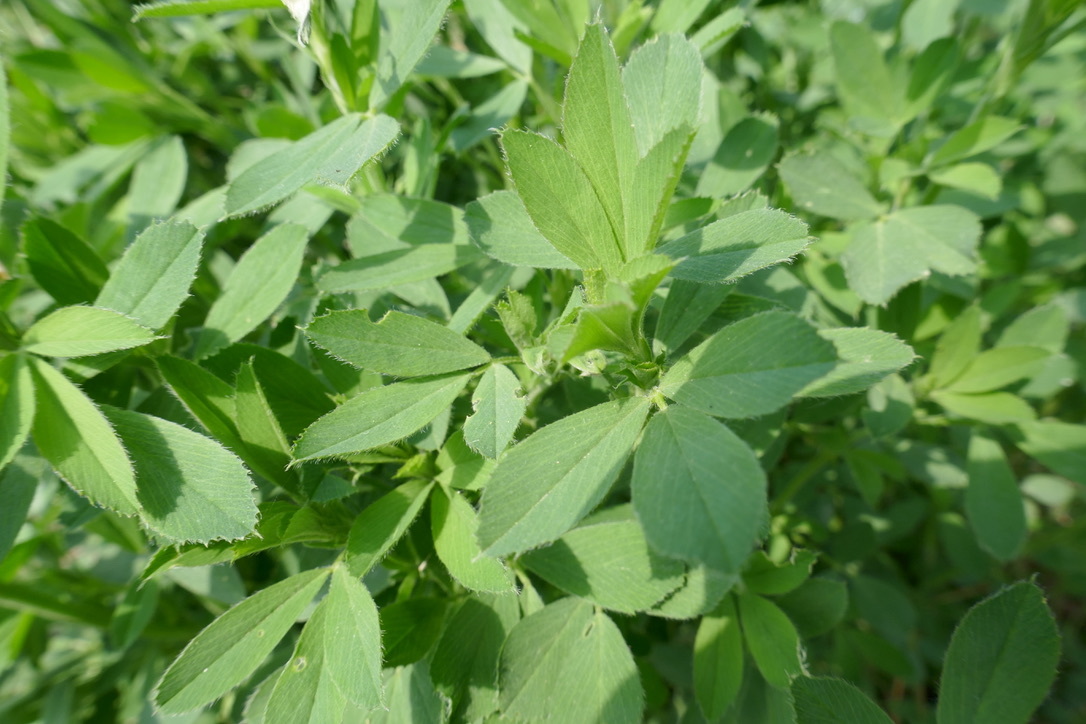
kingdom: Plantae
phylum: Tracheophyta
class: Magnoliopsida
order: Fabales
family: Fabaceae
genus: Medicago
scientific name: Medicago
